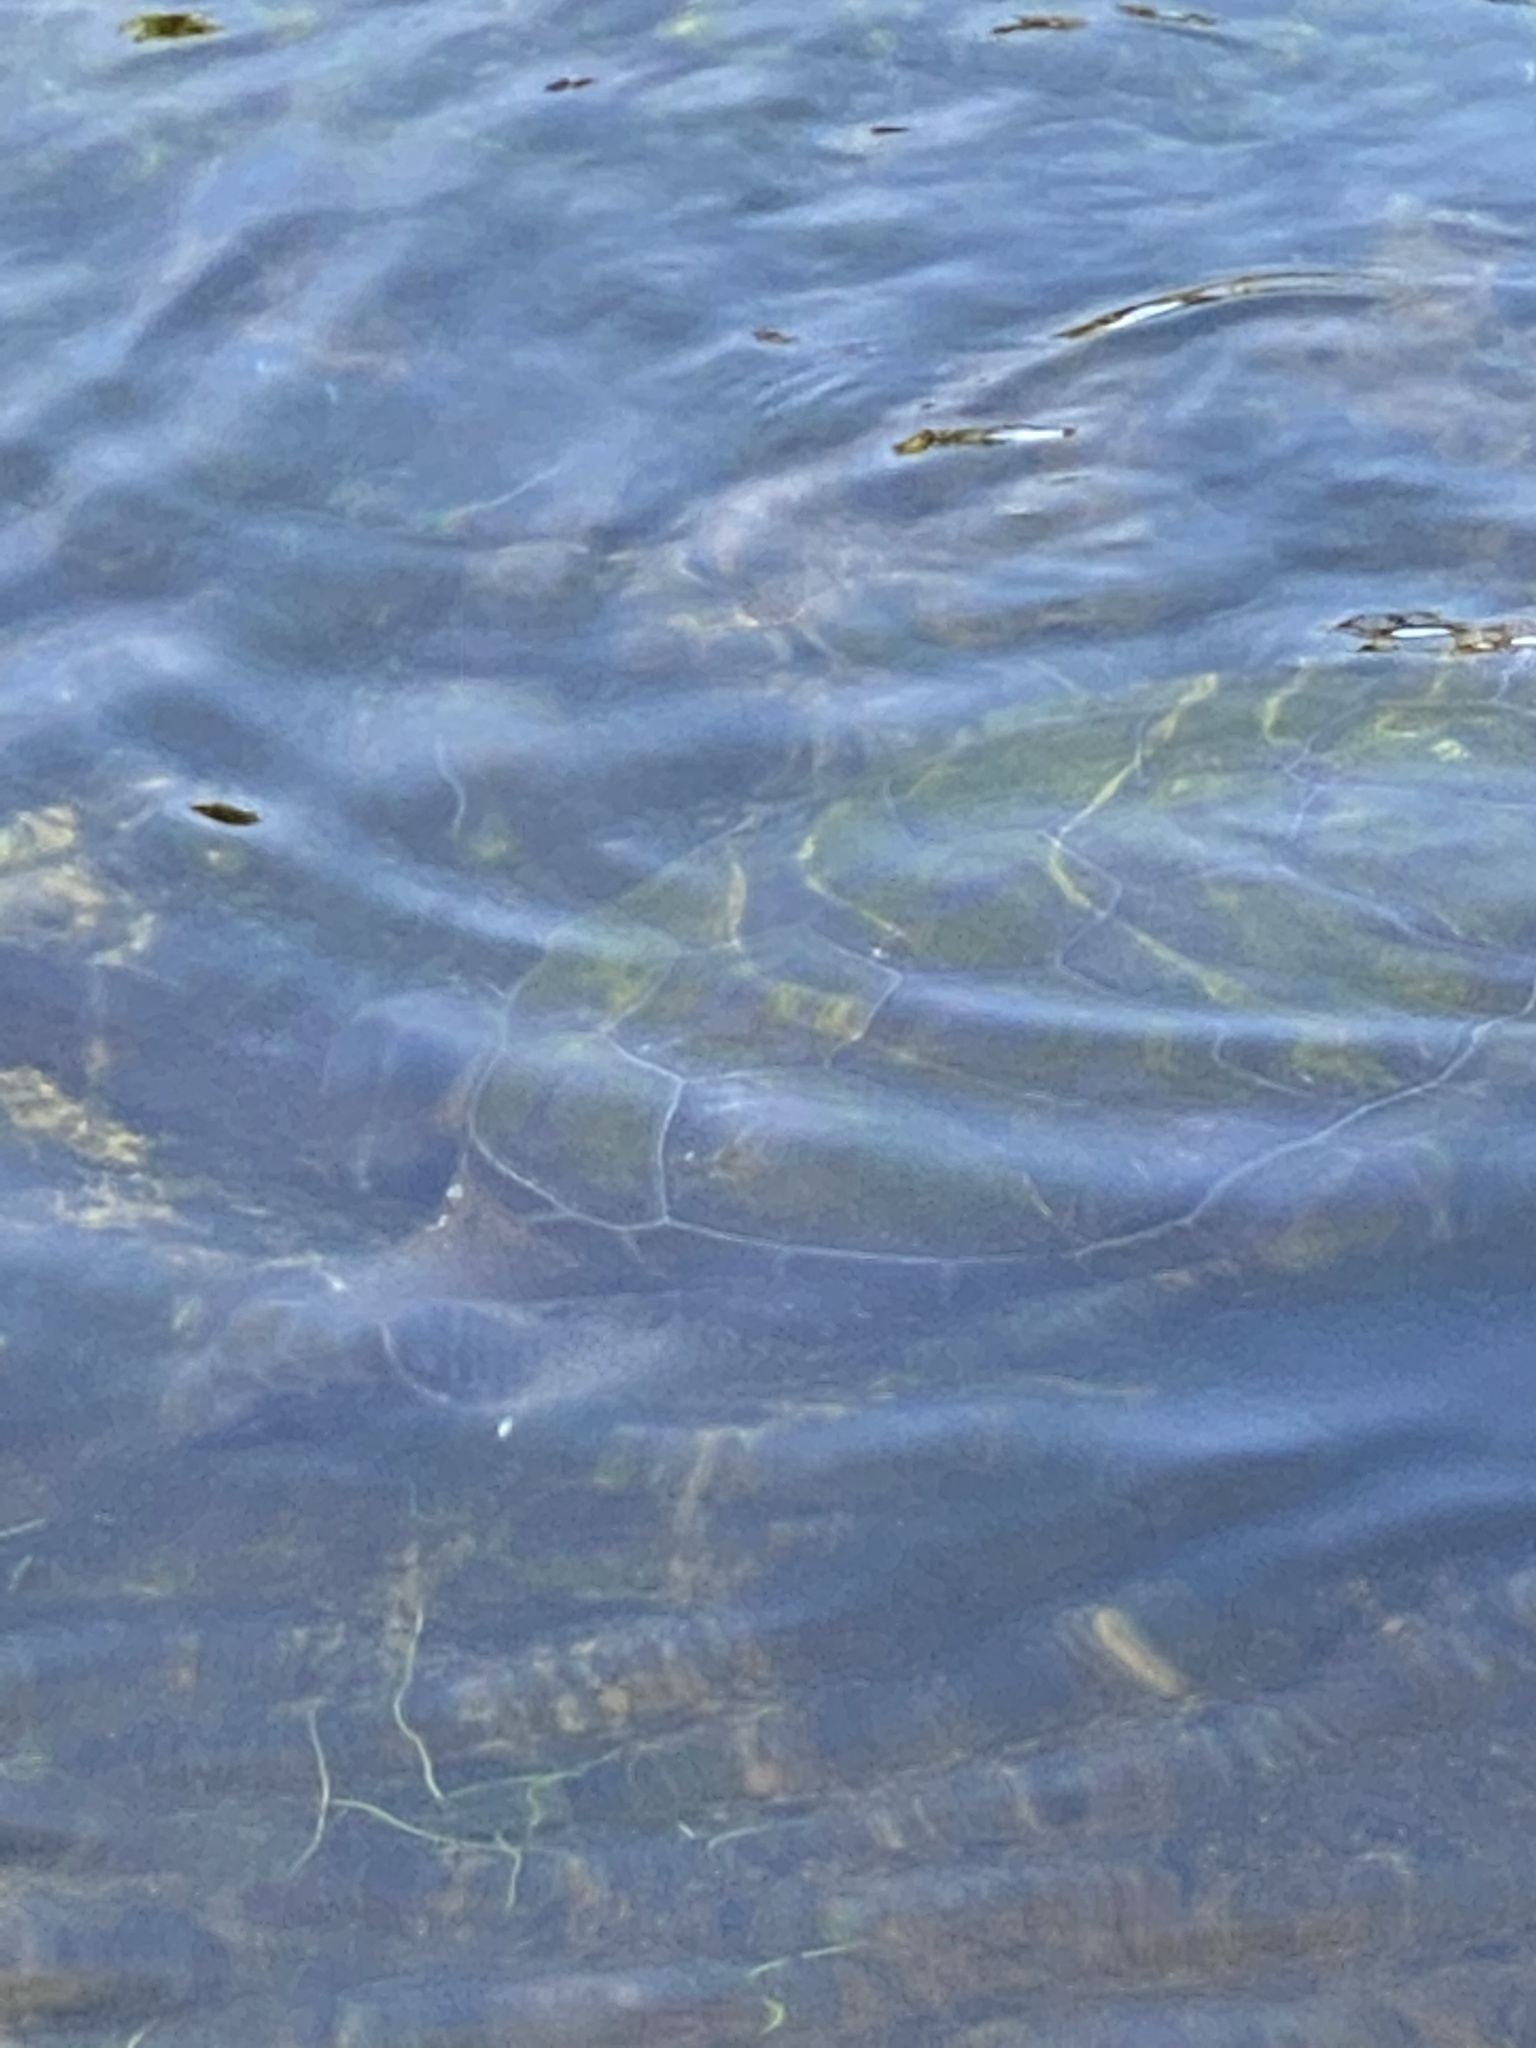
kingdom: Animalia
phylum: Chordata
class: Testudines
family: Cheloniidae
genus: Chelonia
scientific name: Chelonia mydas
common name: Green turtle
